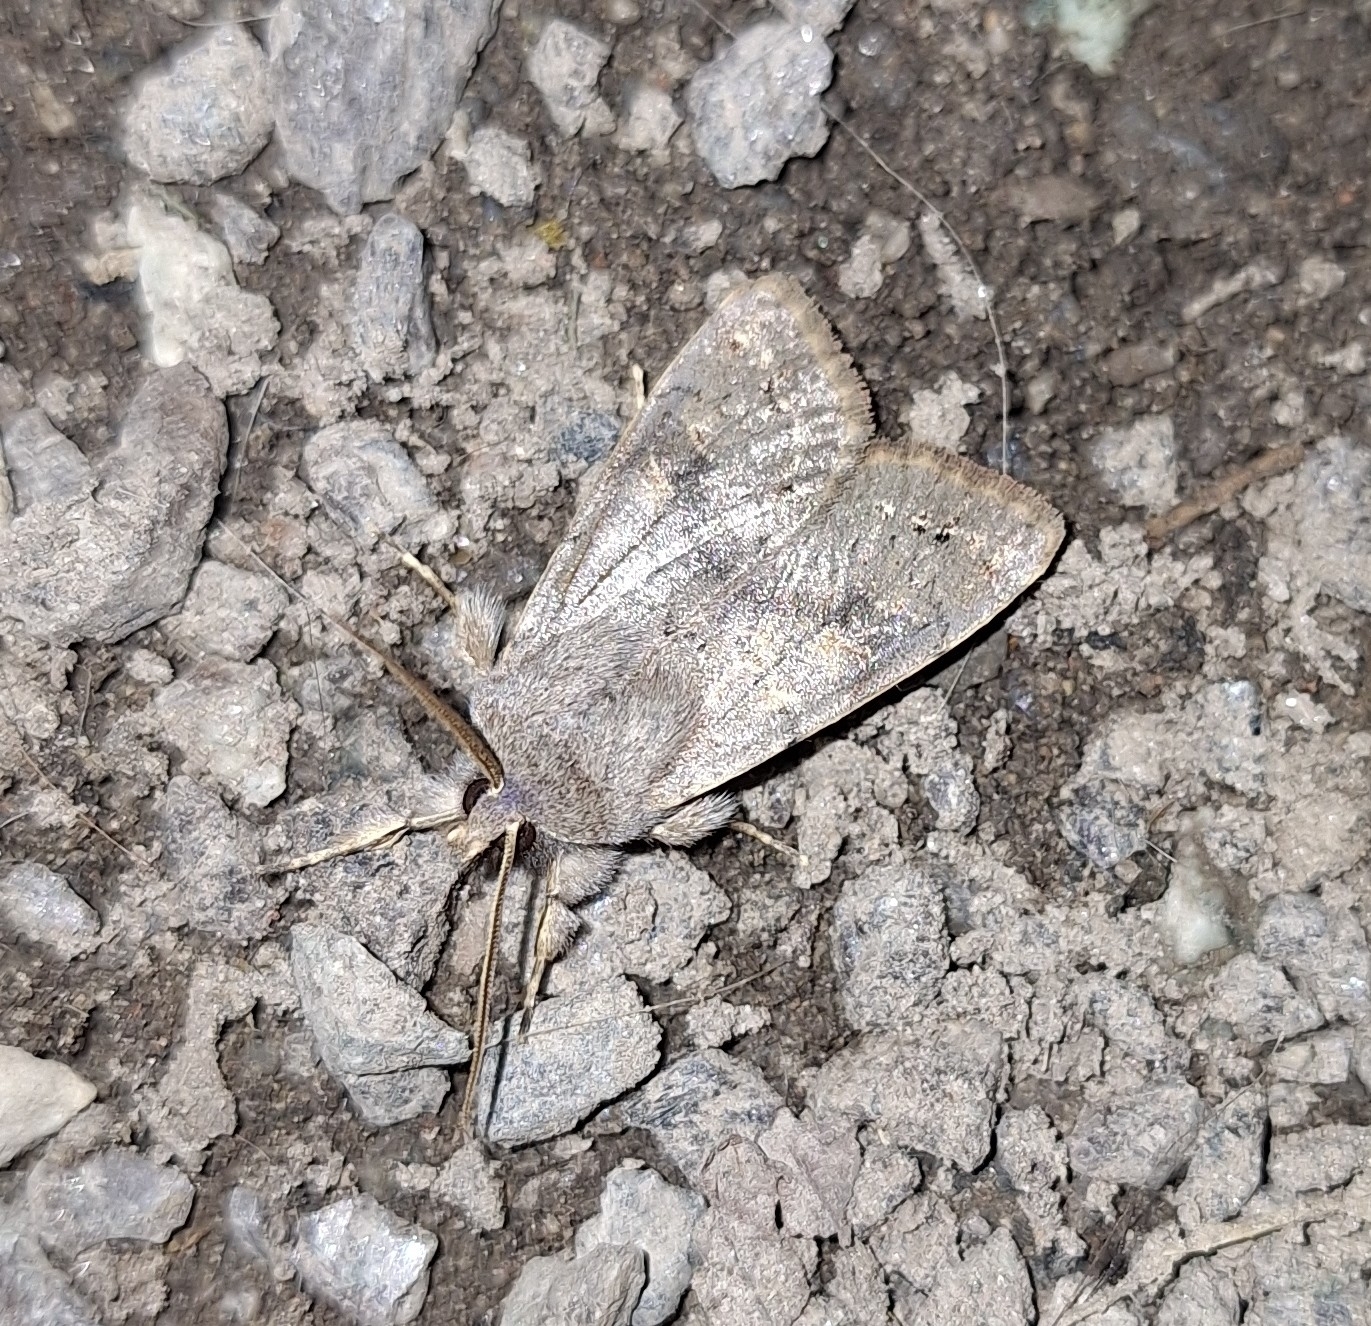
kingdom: Animalia
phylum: Arthropoda
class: Insecta
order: Lepidoptera
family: Noctuidae
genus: Orthosia
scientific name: Orthosia populeti
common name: Lead-coloured drab
